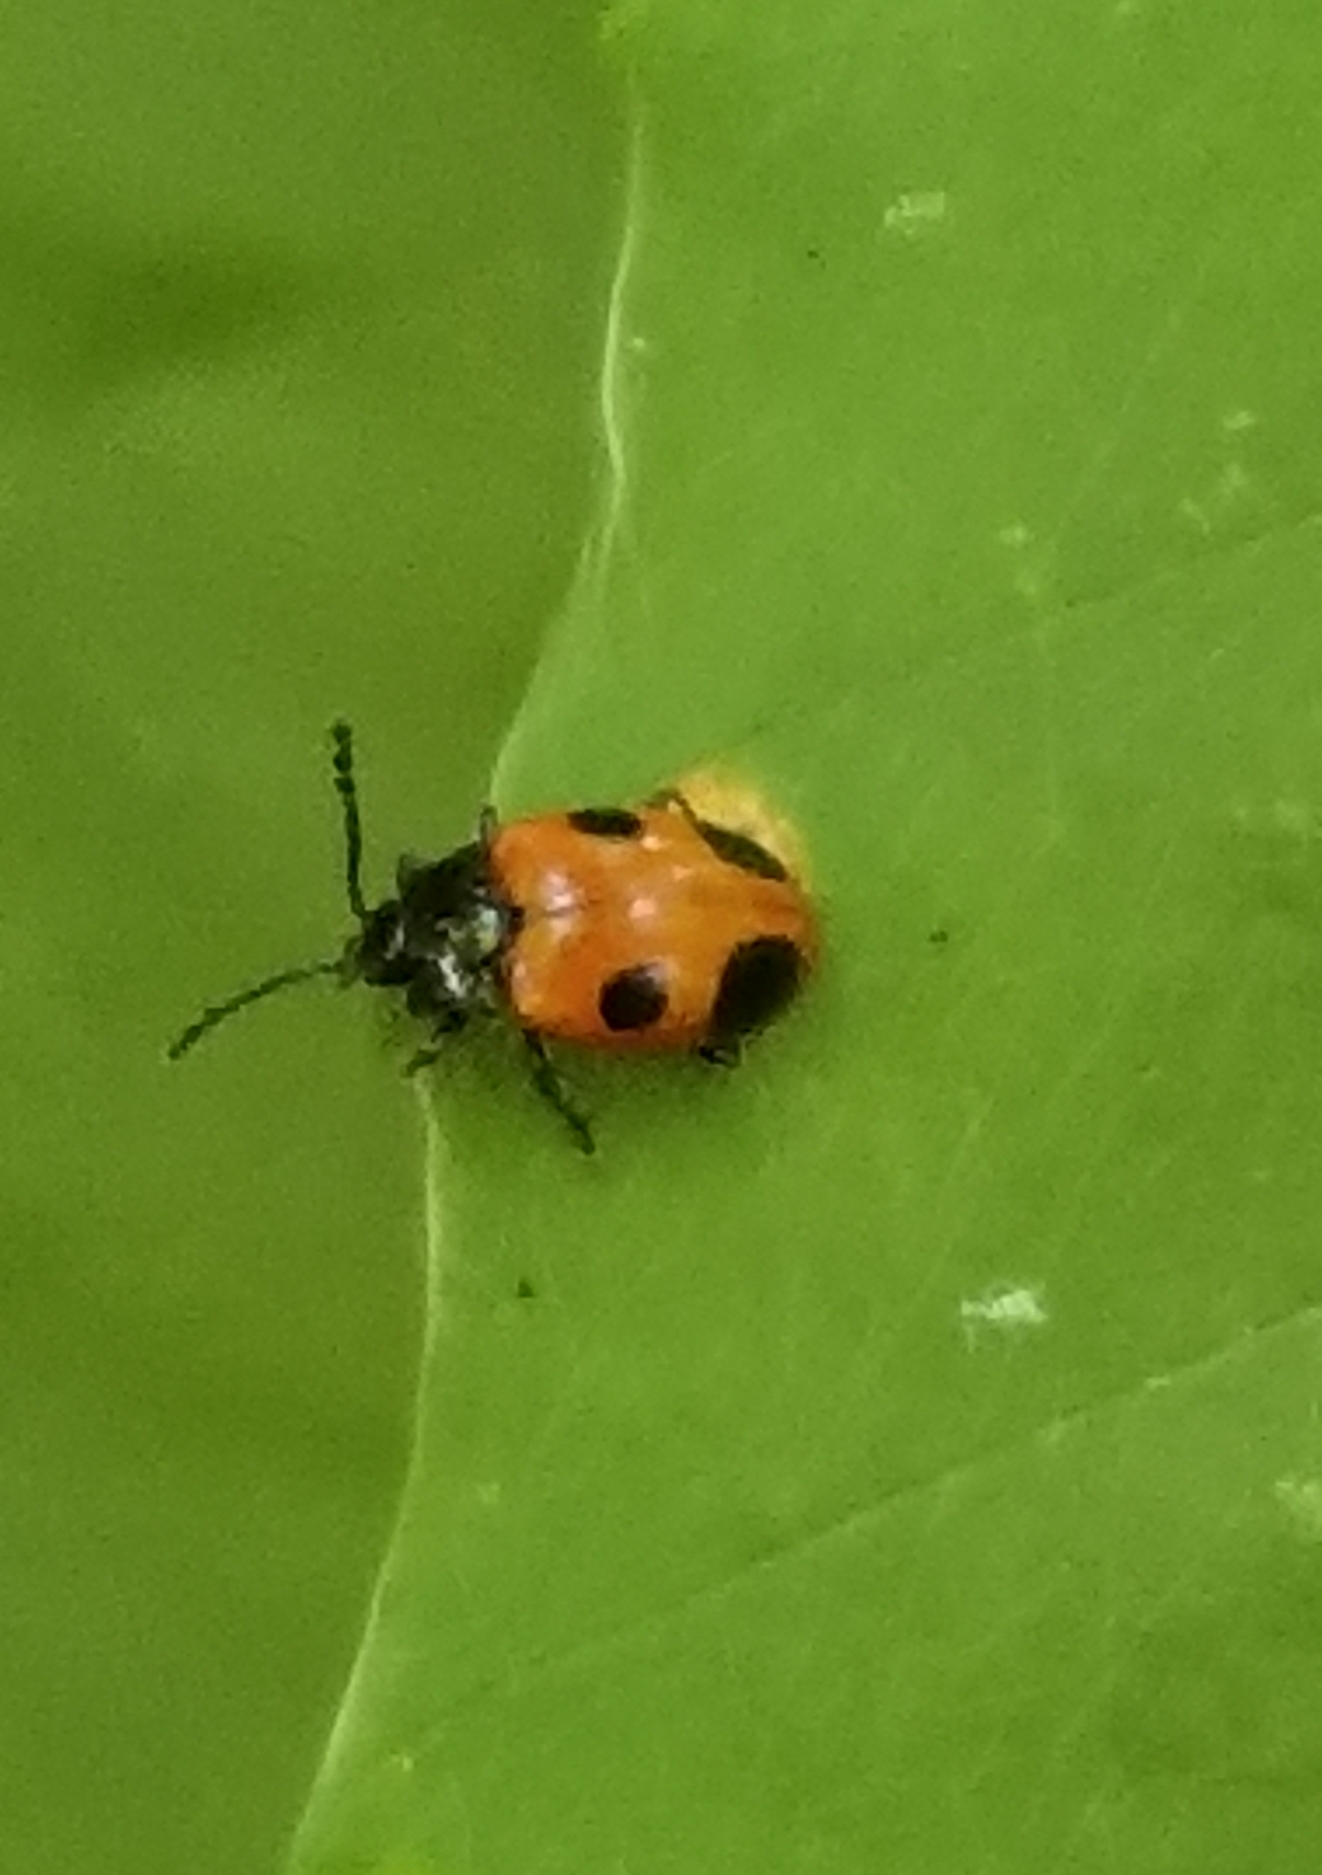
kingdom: Animalia
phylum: Arthropoda
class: Insecta
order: Coleoptera
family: Endomychidae
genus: Endomychus
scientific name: Endomychus biguttatus
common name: Handsome fungus beetle
